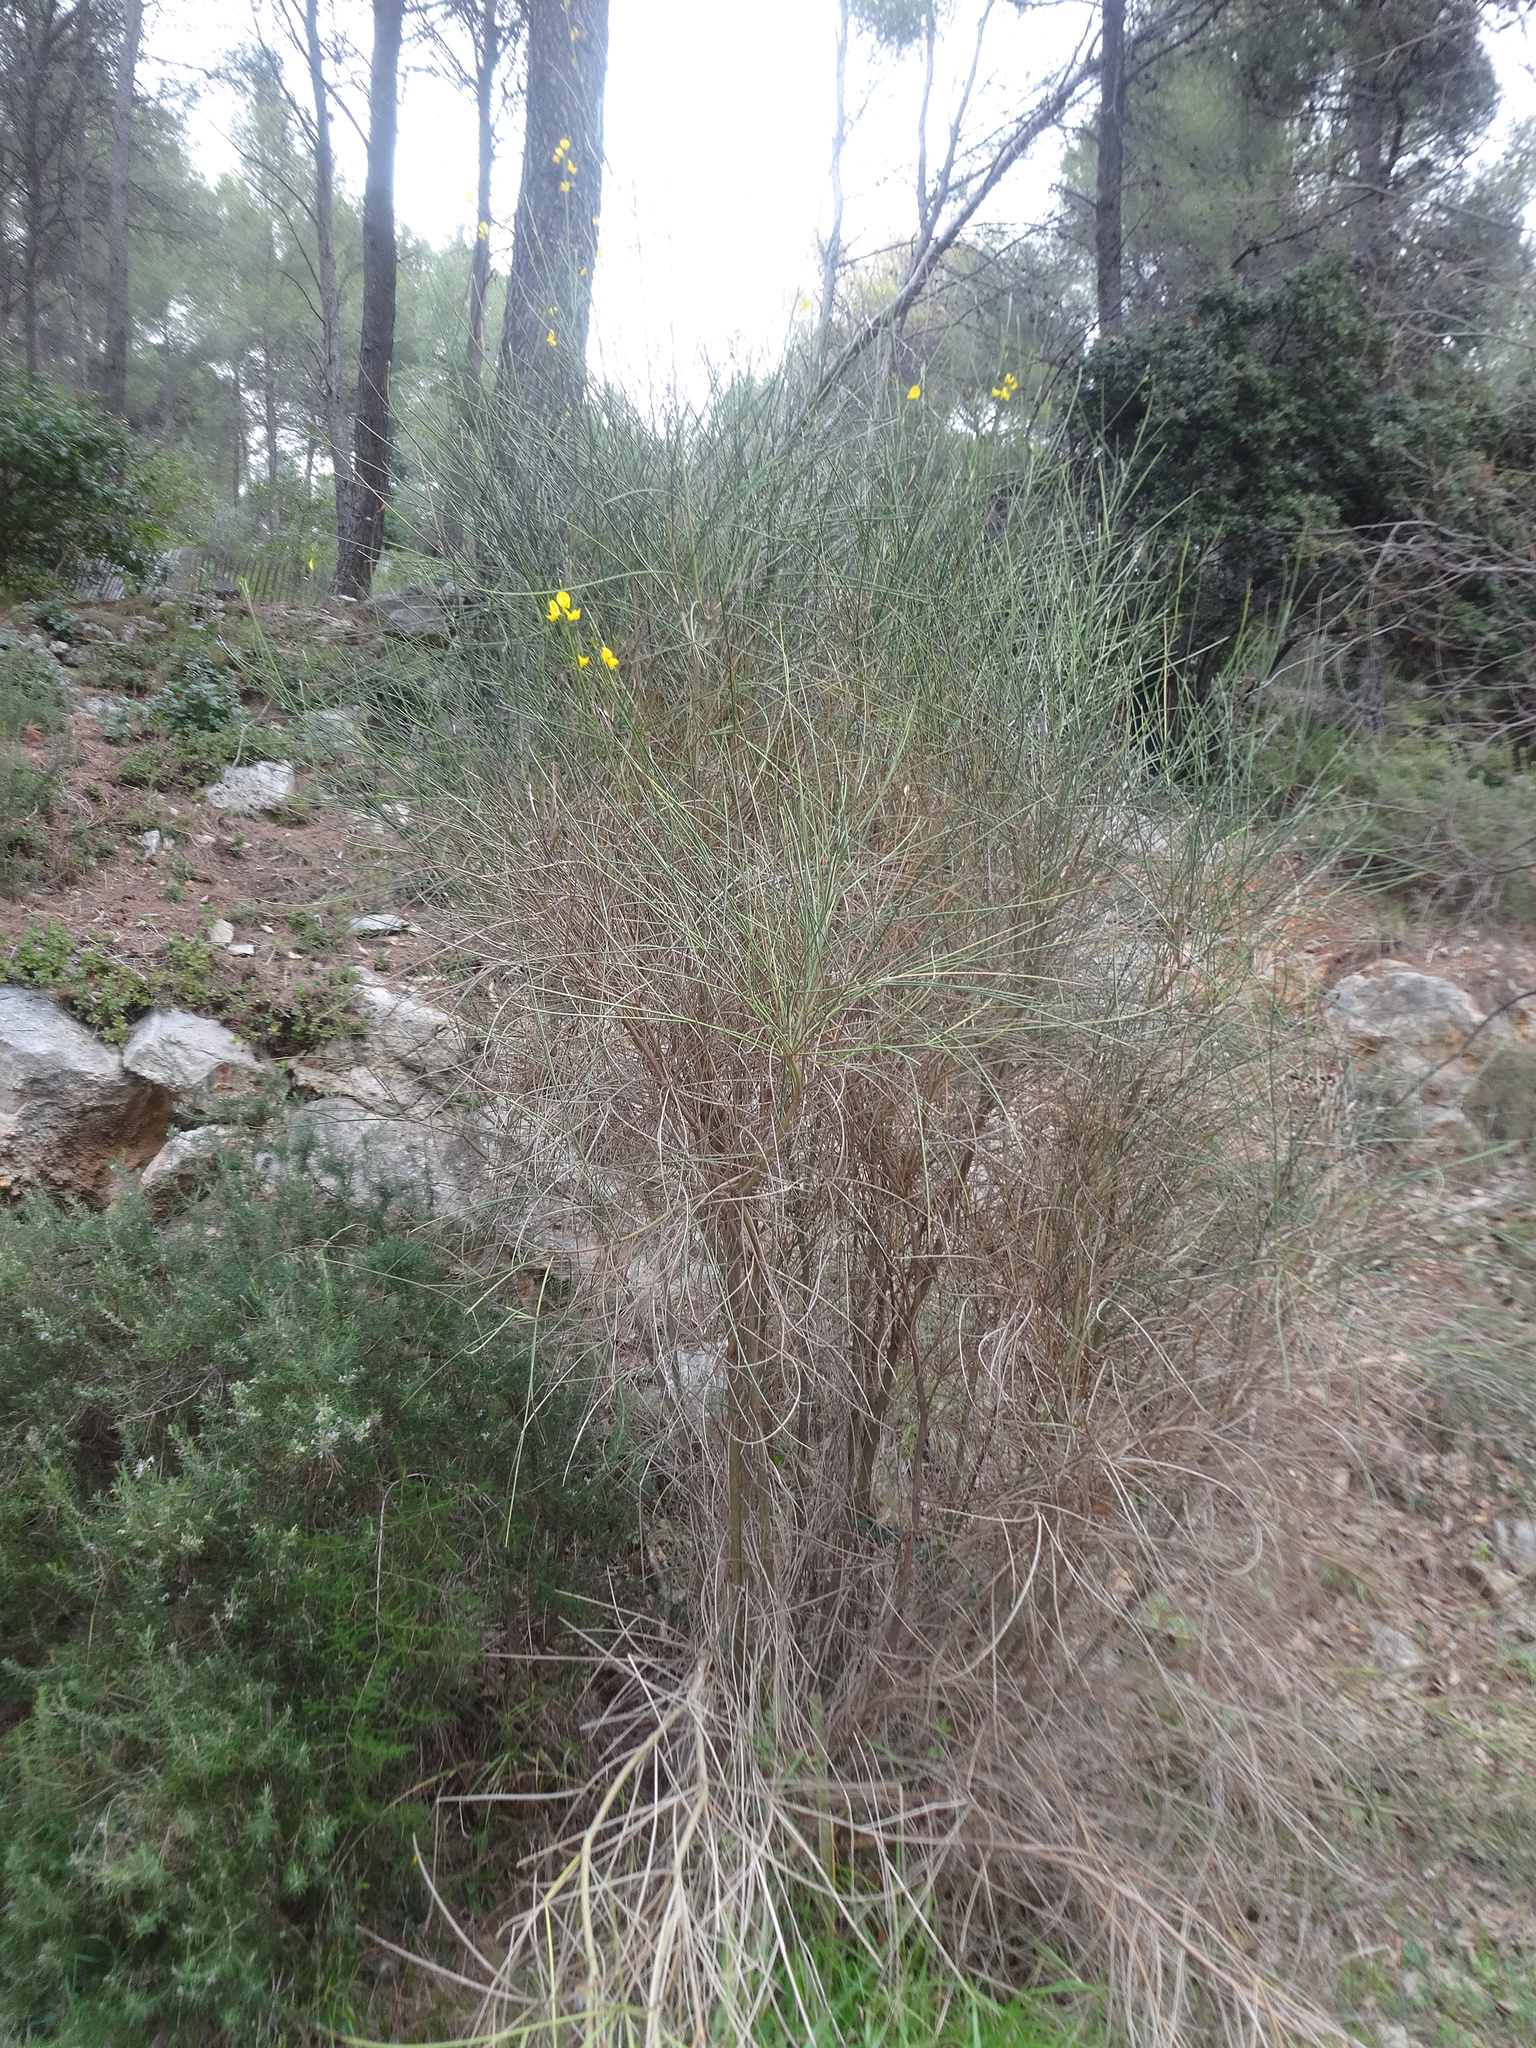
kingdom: Plantae
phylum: Tracheophyta
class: Magnoliopsida
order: Fabales
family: Fabaceae
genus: Spartium
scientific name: Spartium junceum
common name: Spanish broom
